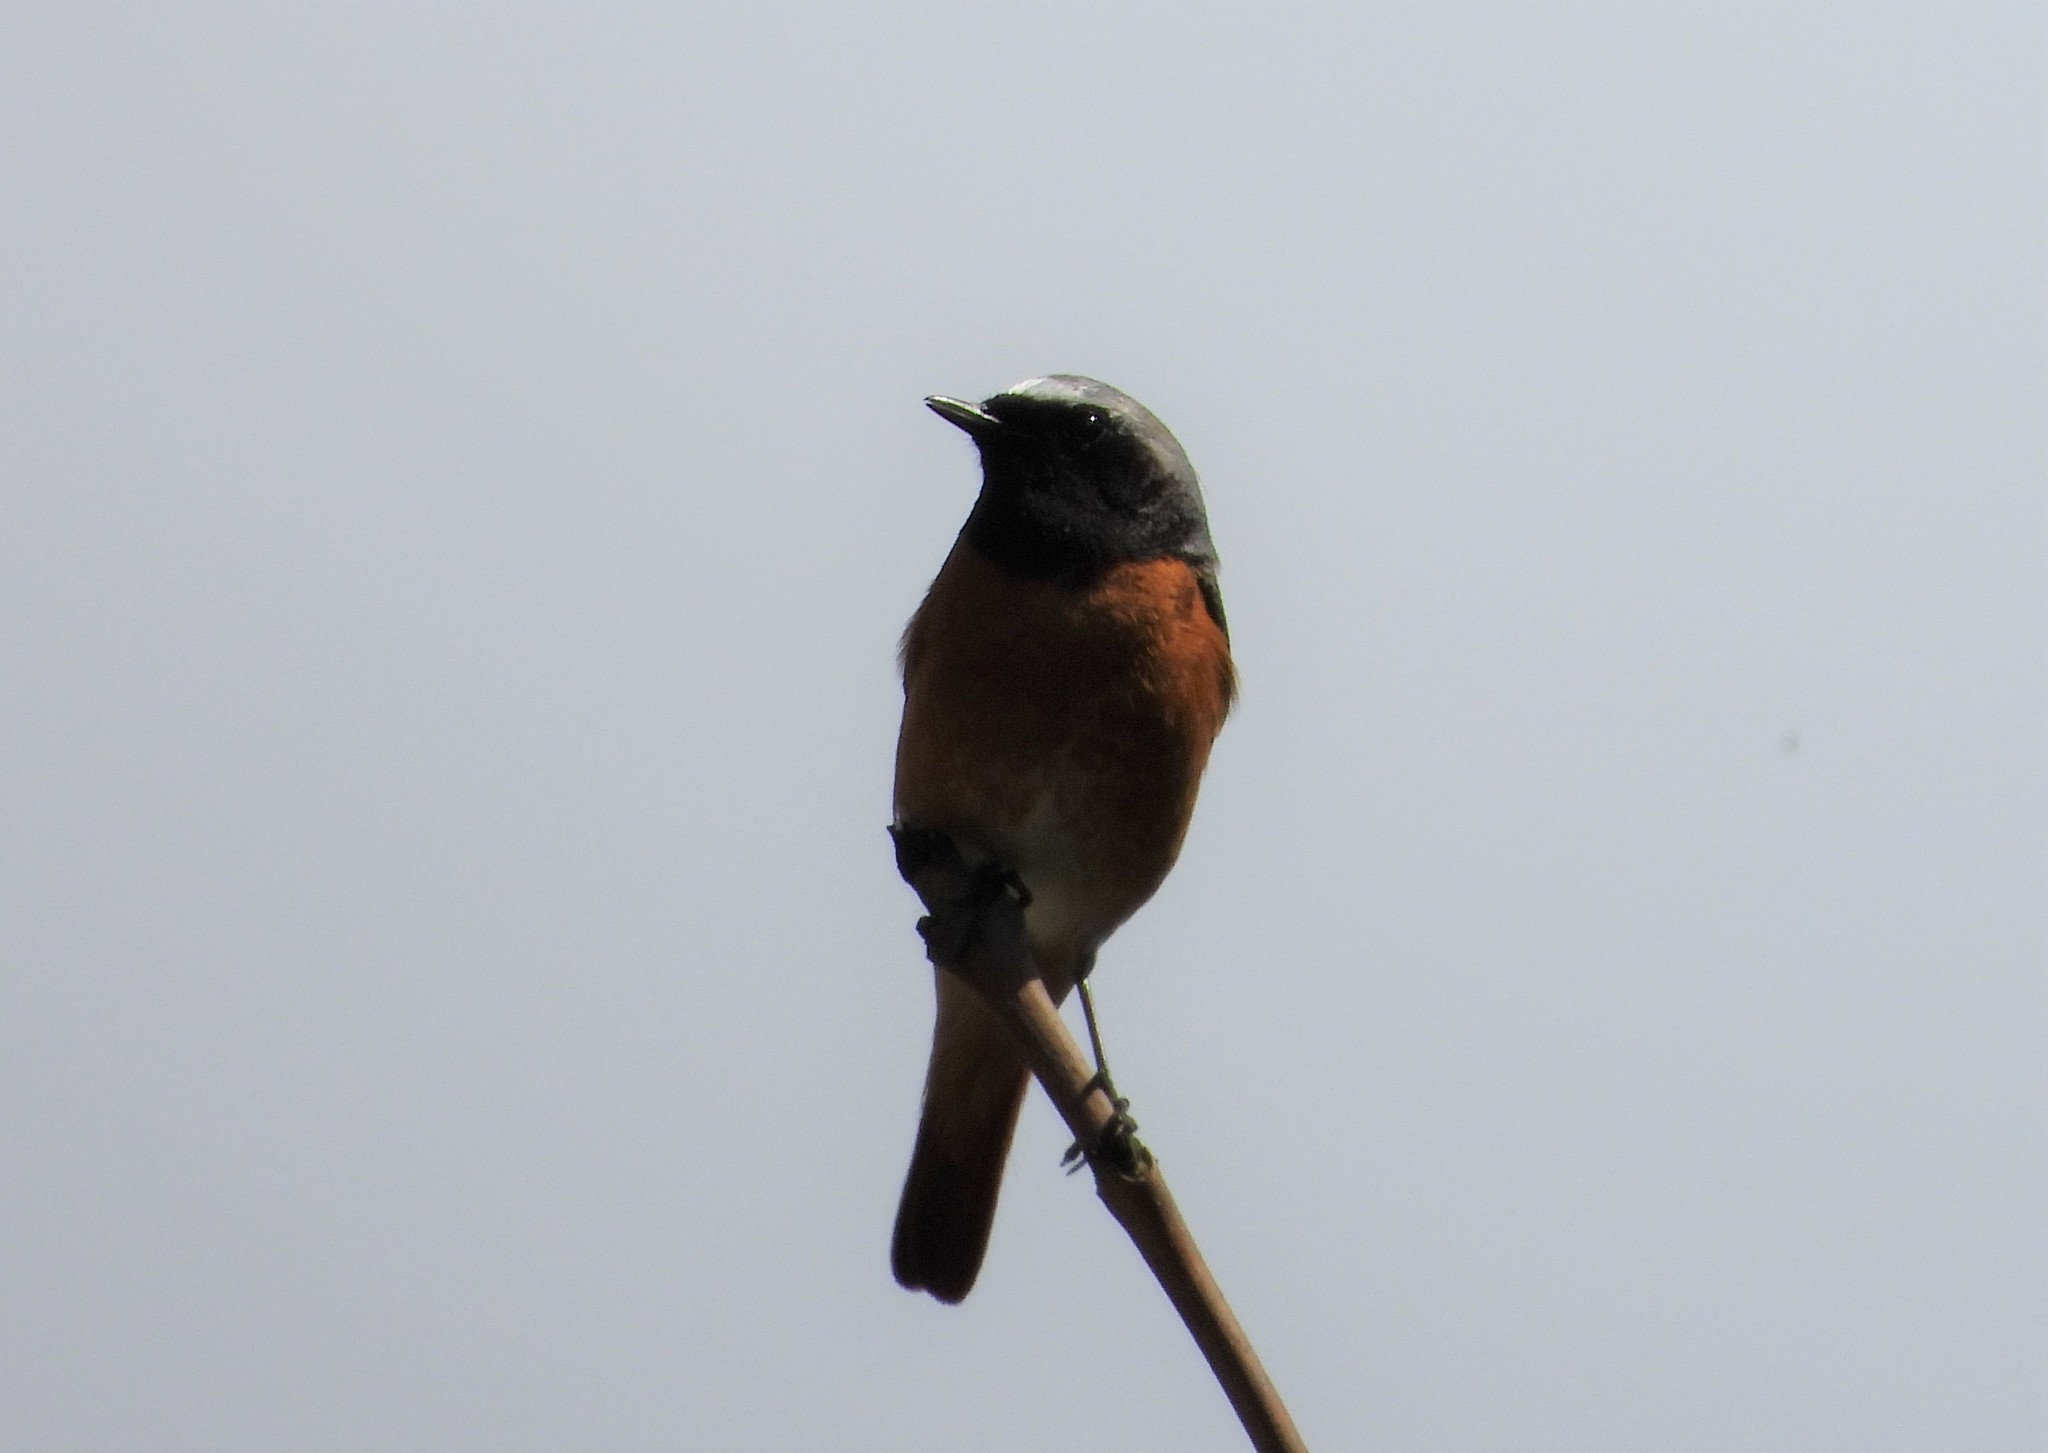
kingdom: Animalia
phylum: Chordata
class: Aves
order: Passeriformes
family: Muscicapidae
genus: Phoenicurus
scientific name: Phoenicurus phoenicurus
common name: Common redstart
